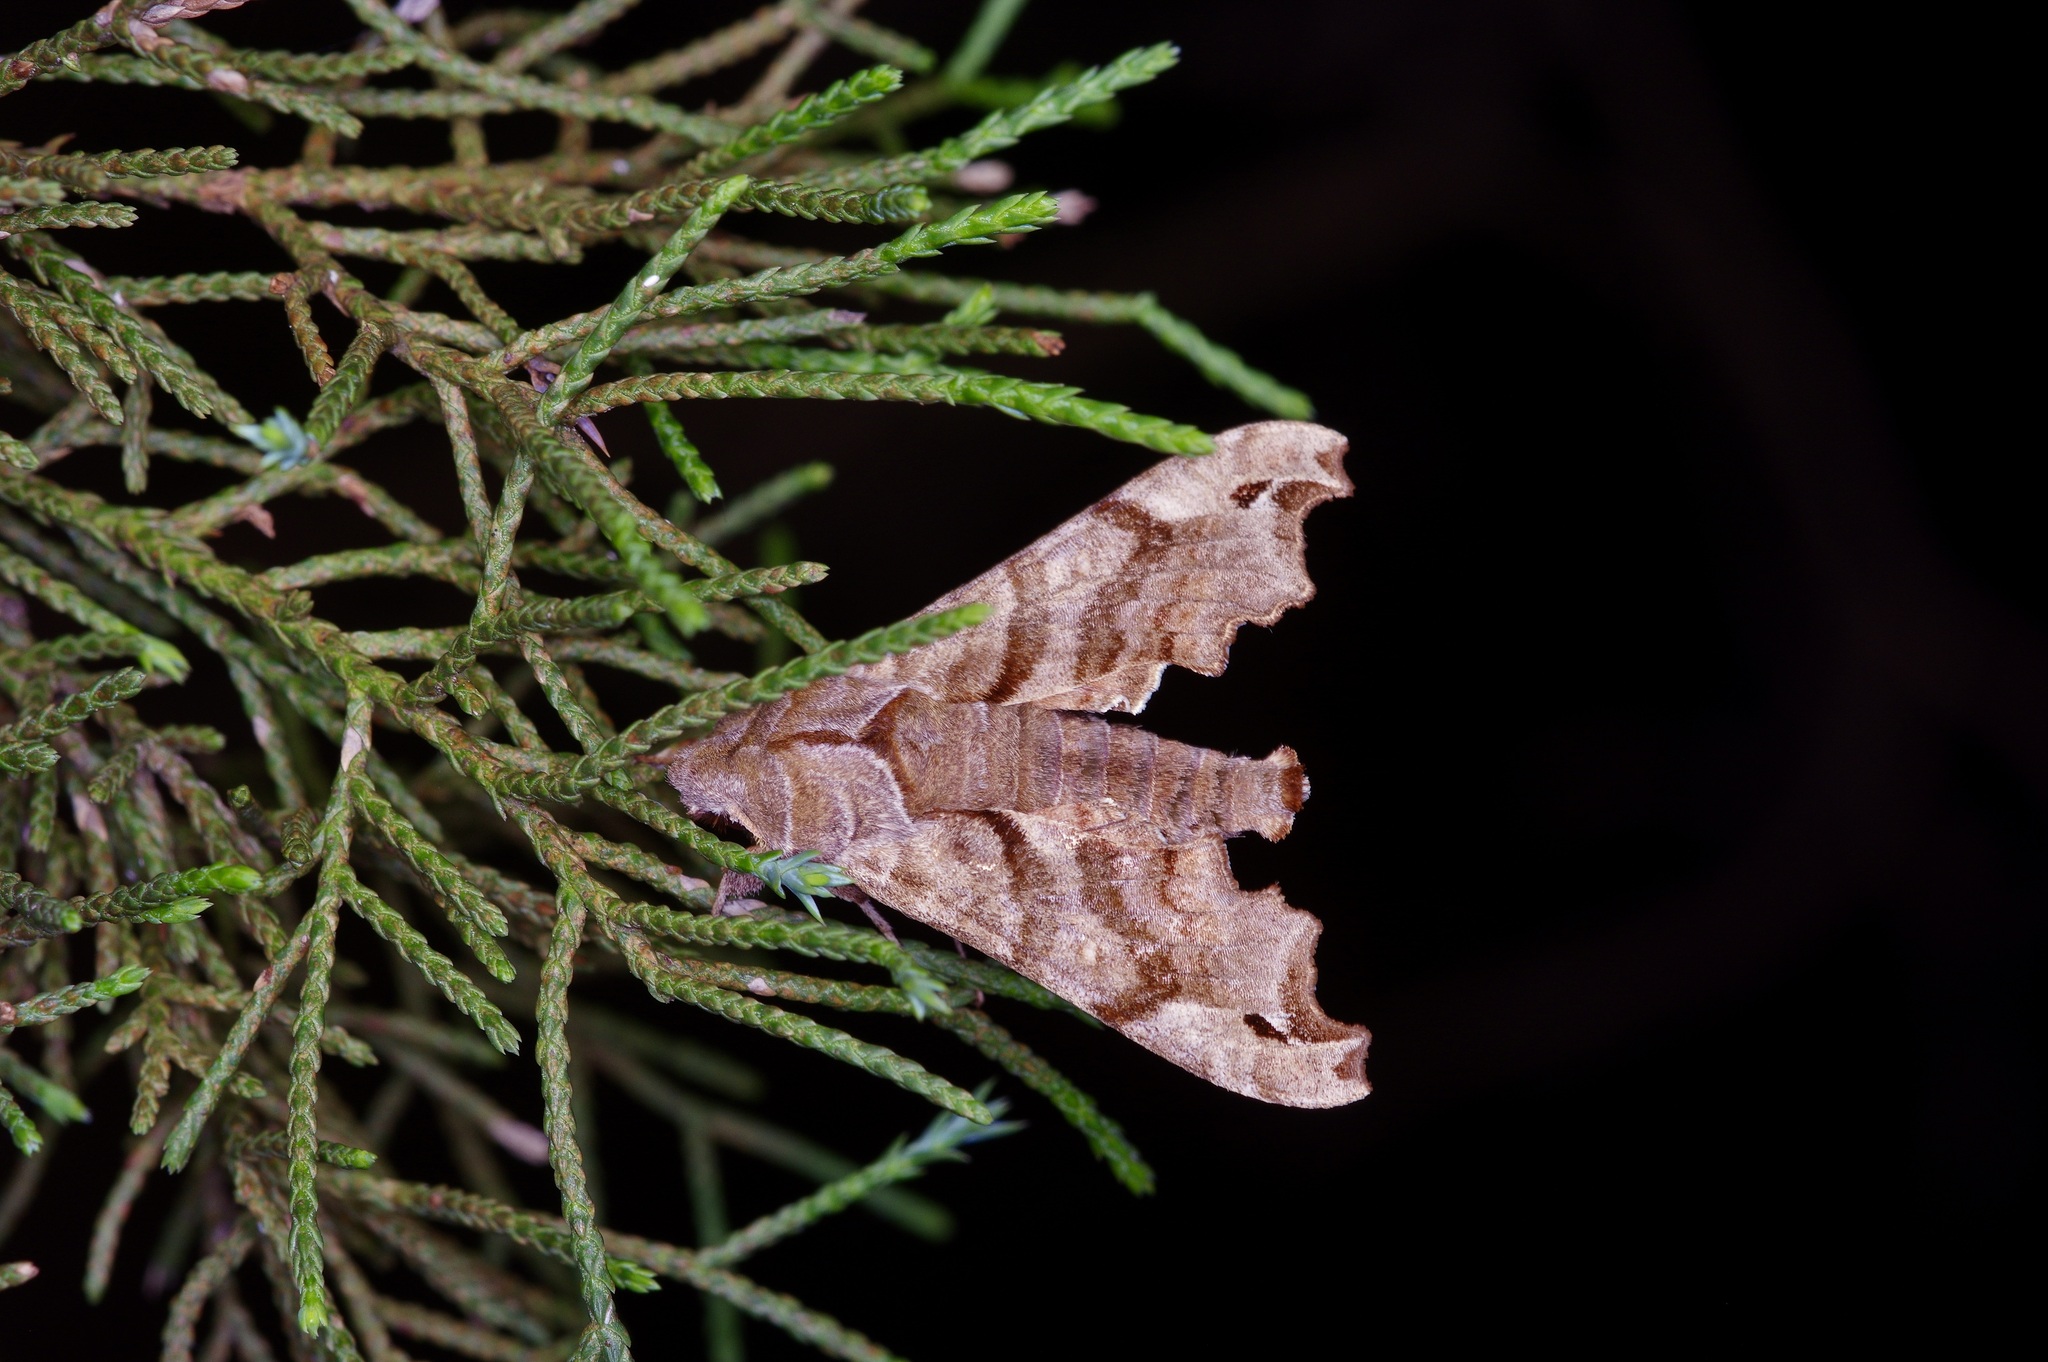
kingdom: Animalia
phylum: Arthropoda
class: Insecta
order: Lepidoptera
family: Sphingidae
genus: Deidamia
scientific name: Deidamia inscriptum
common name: Lettered sphinx
